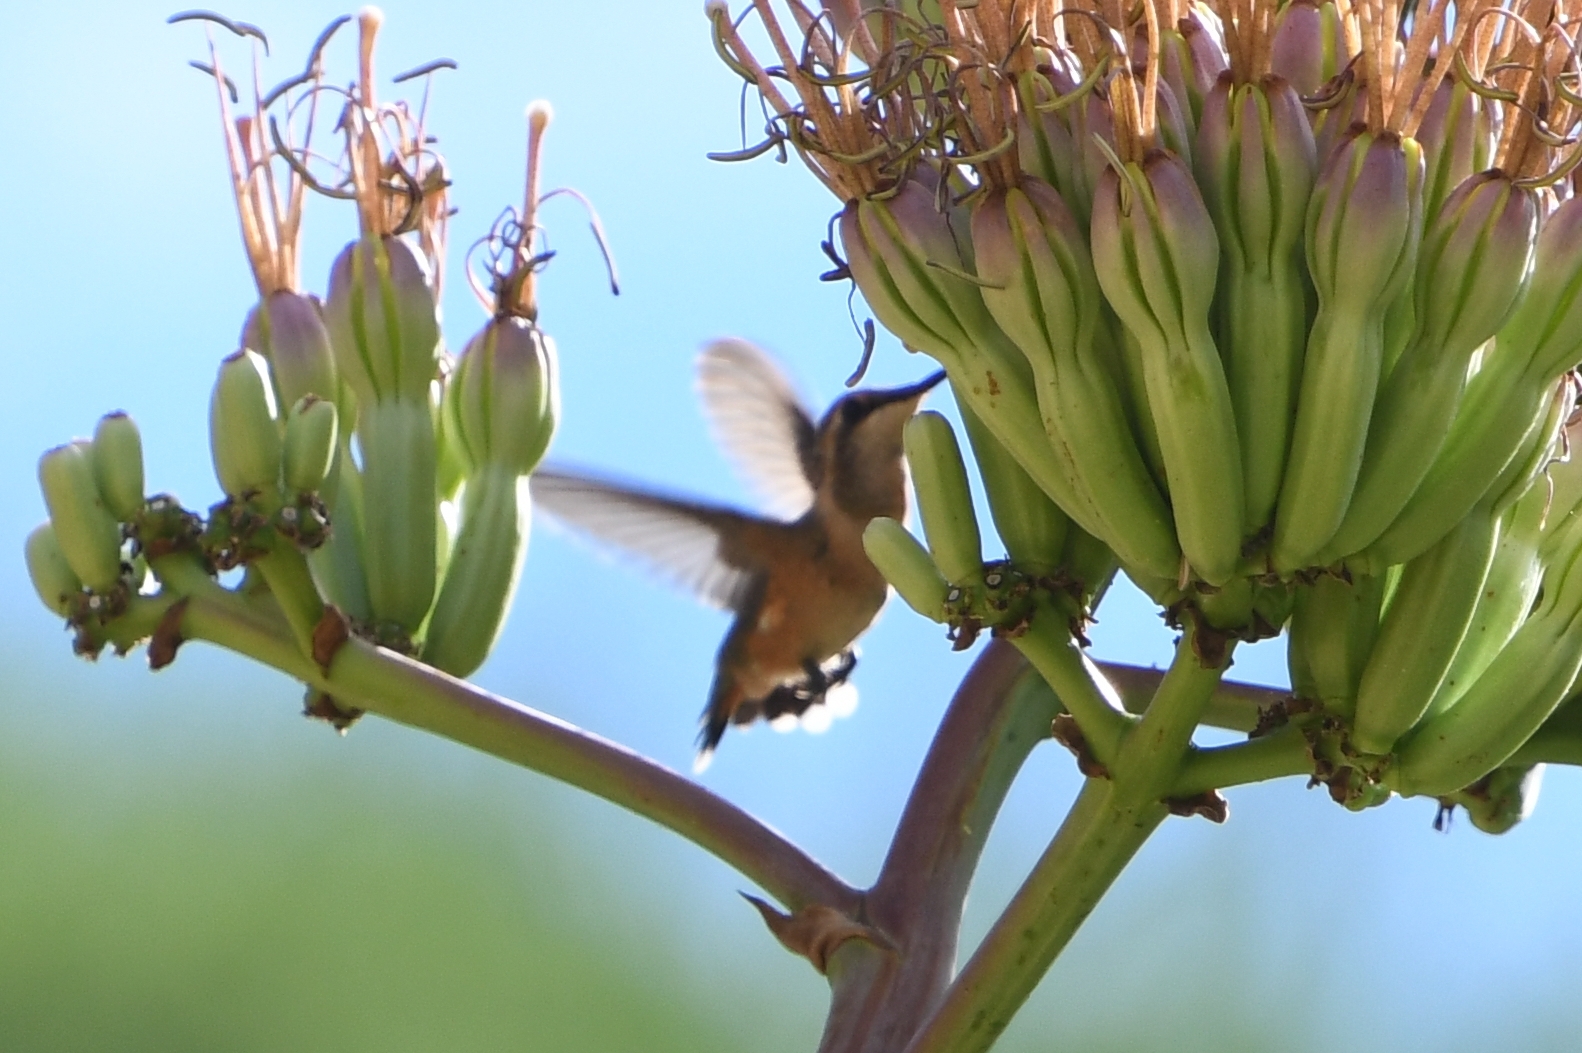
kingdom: Animalia
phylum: Chordata
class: Aves
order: Apodiformes
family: Trochilidae
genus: Calothorax
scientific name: Calothorax lucifer
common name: Lucifer sheartail
